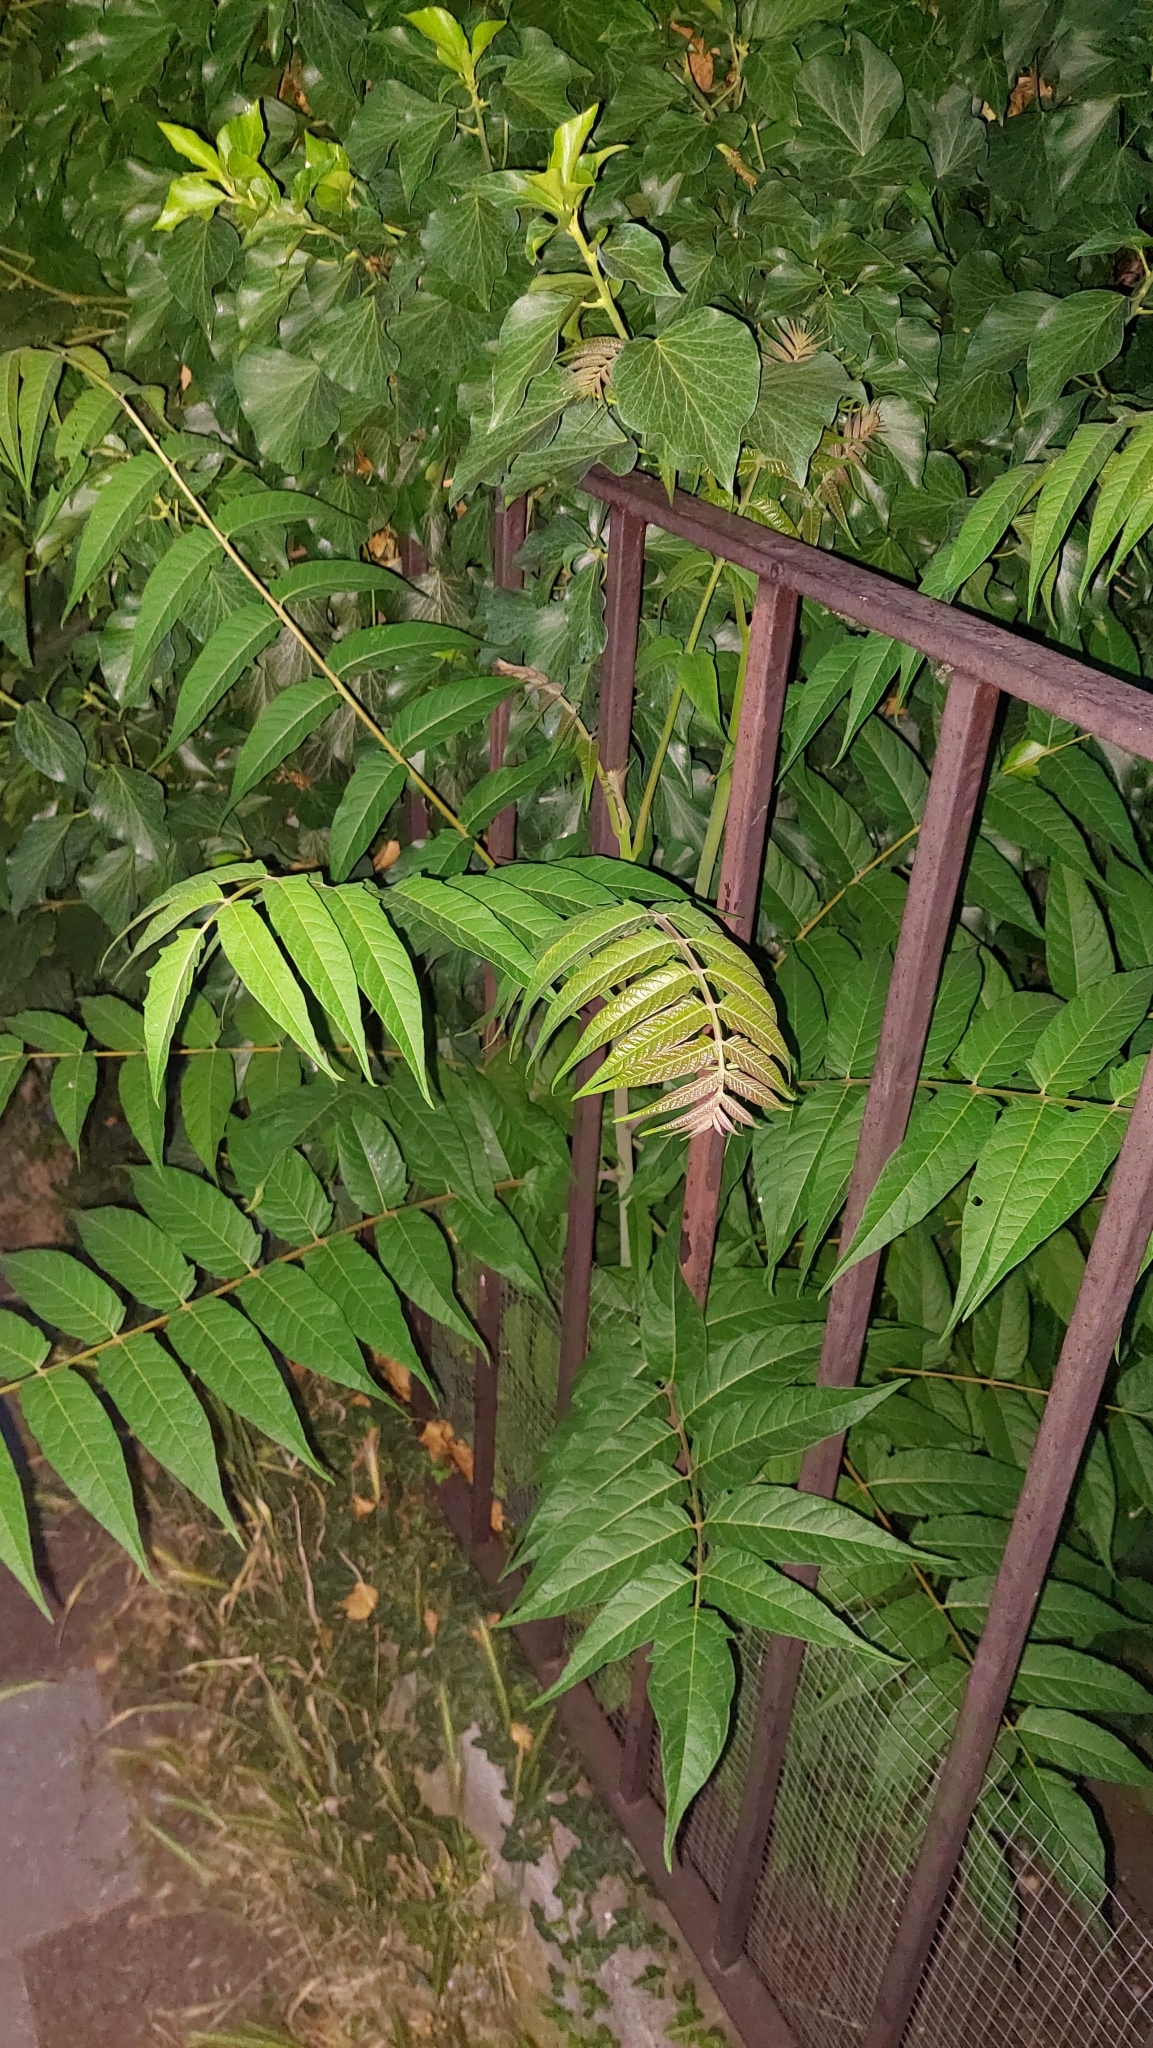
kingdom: Plantae
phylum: Tracheophyta
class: Magnoliopsida
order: Sapindales
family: Simaroubaceae
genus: Ailanthus
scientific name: Ailanthus altissima
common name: Tree-of-heaven
